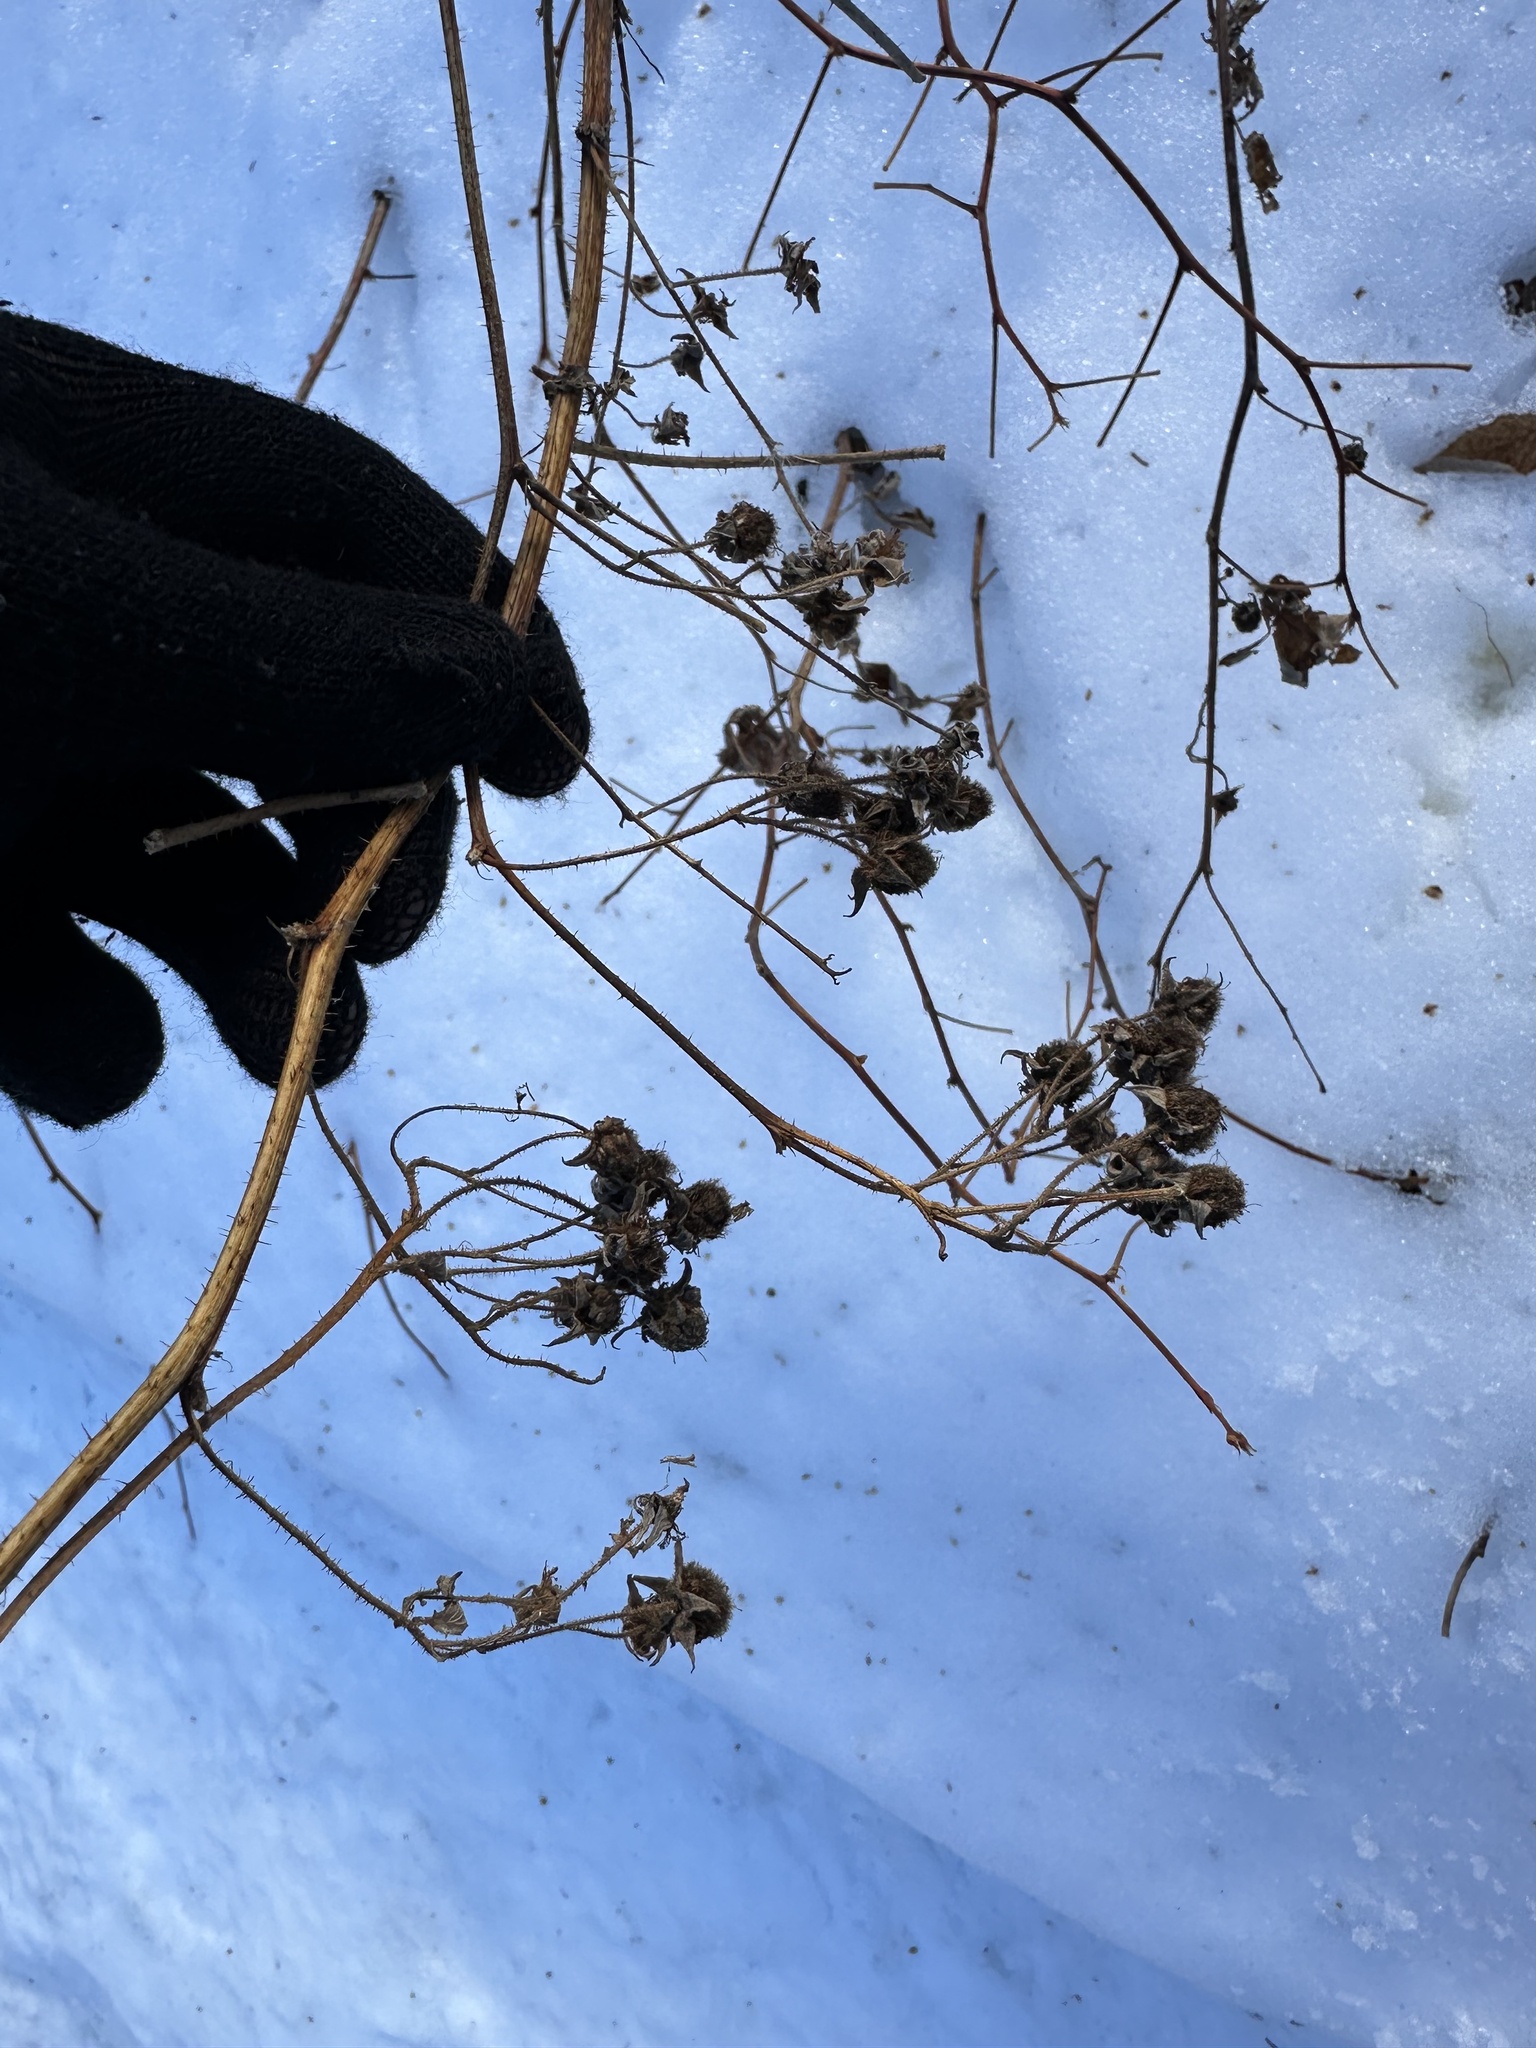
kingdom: Plantae
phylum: Tracheophyta
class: Magnoliopsida
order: Rosales
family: Rosaceae
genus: Rubus
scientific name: Rubus idaeus
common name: Raspberry
